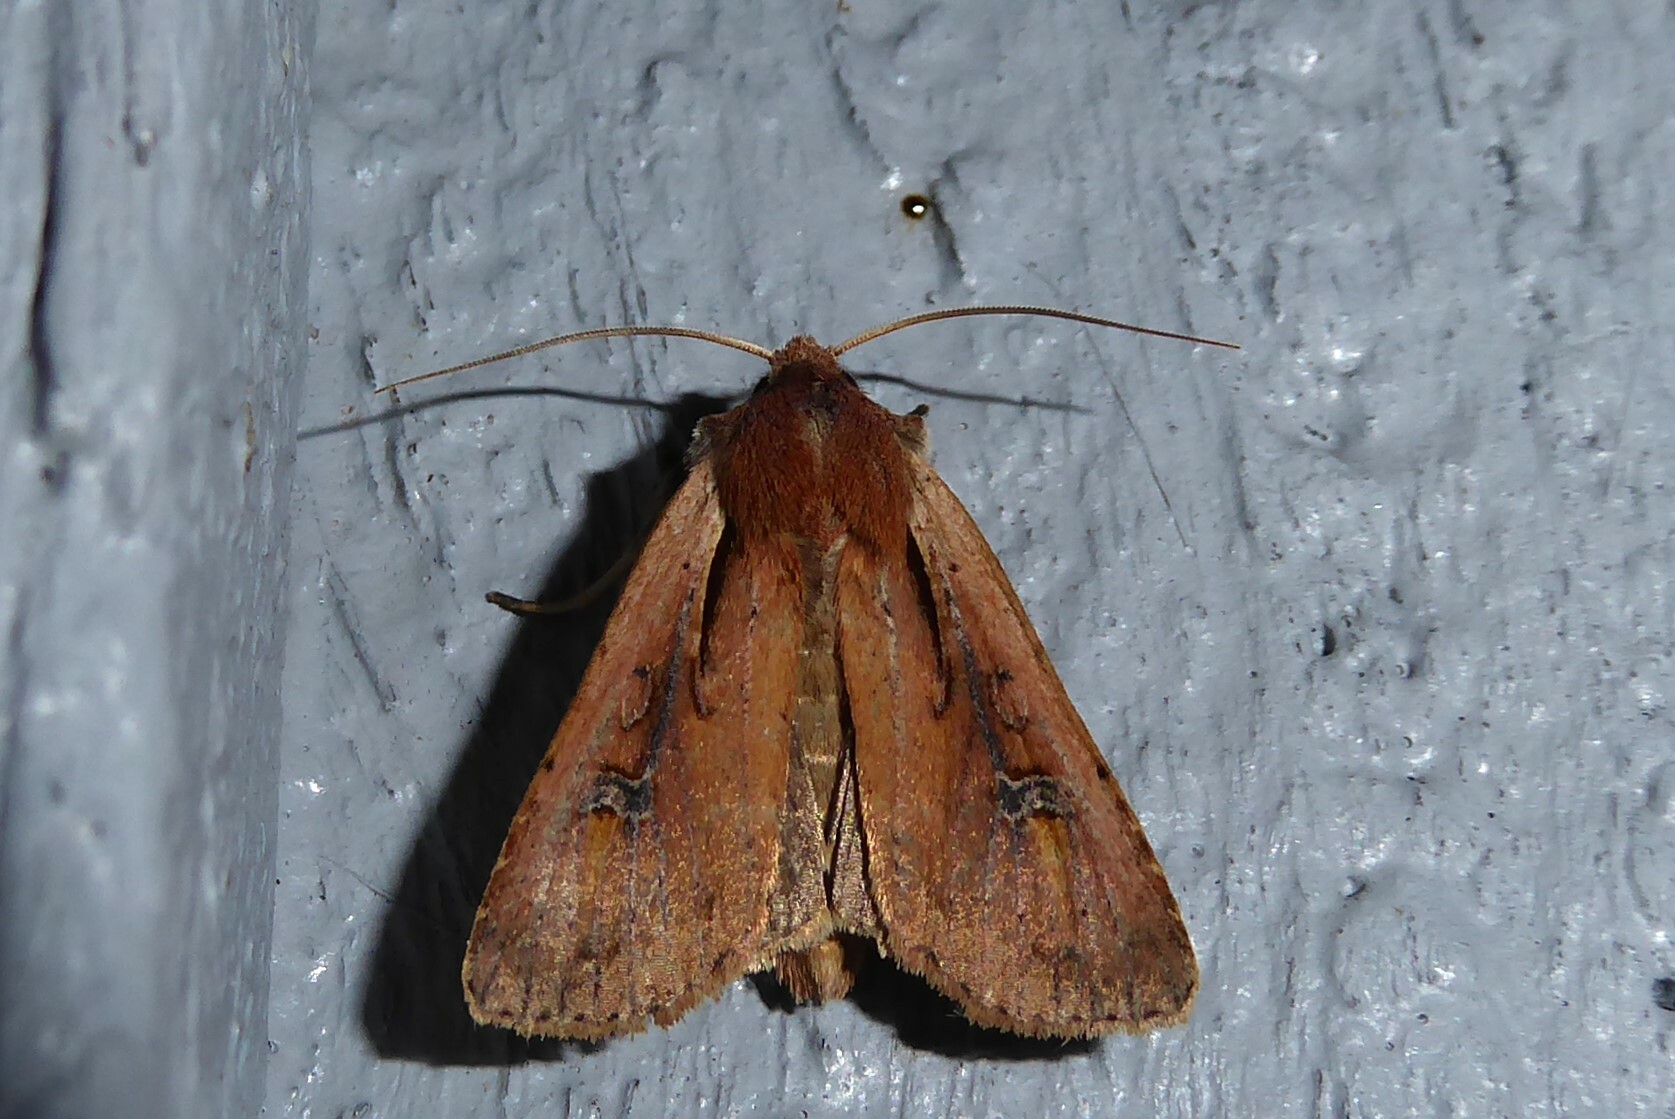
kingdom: Animalia
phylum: Arthropoda
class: Insecta
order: Lepidoptera
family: Noctuidae
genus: Ichneutica
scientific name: Ichneutica atristriga
